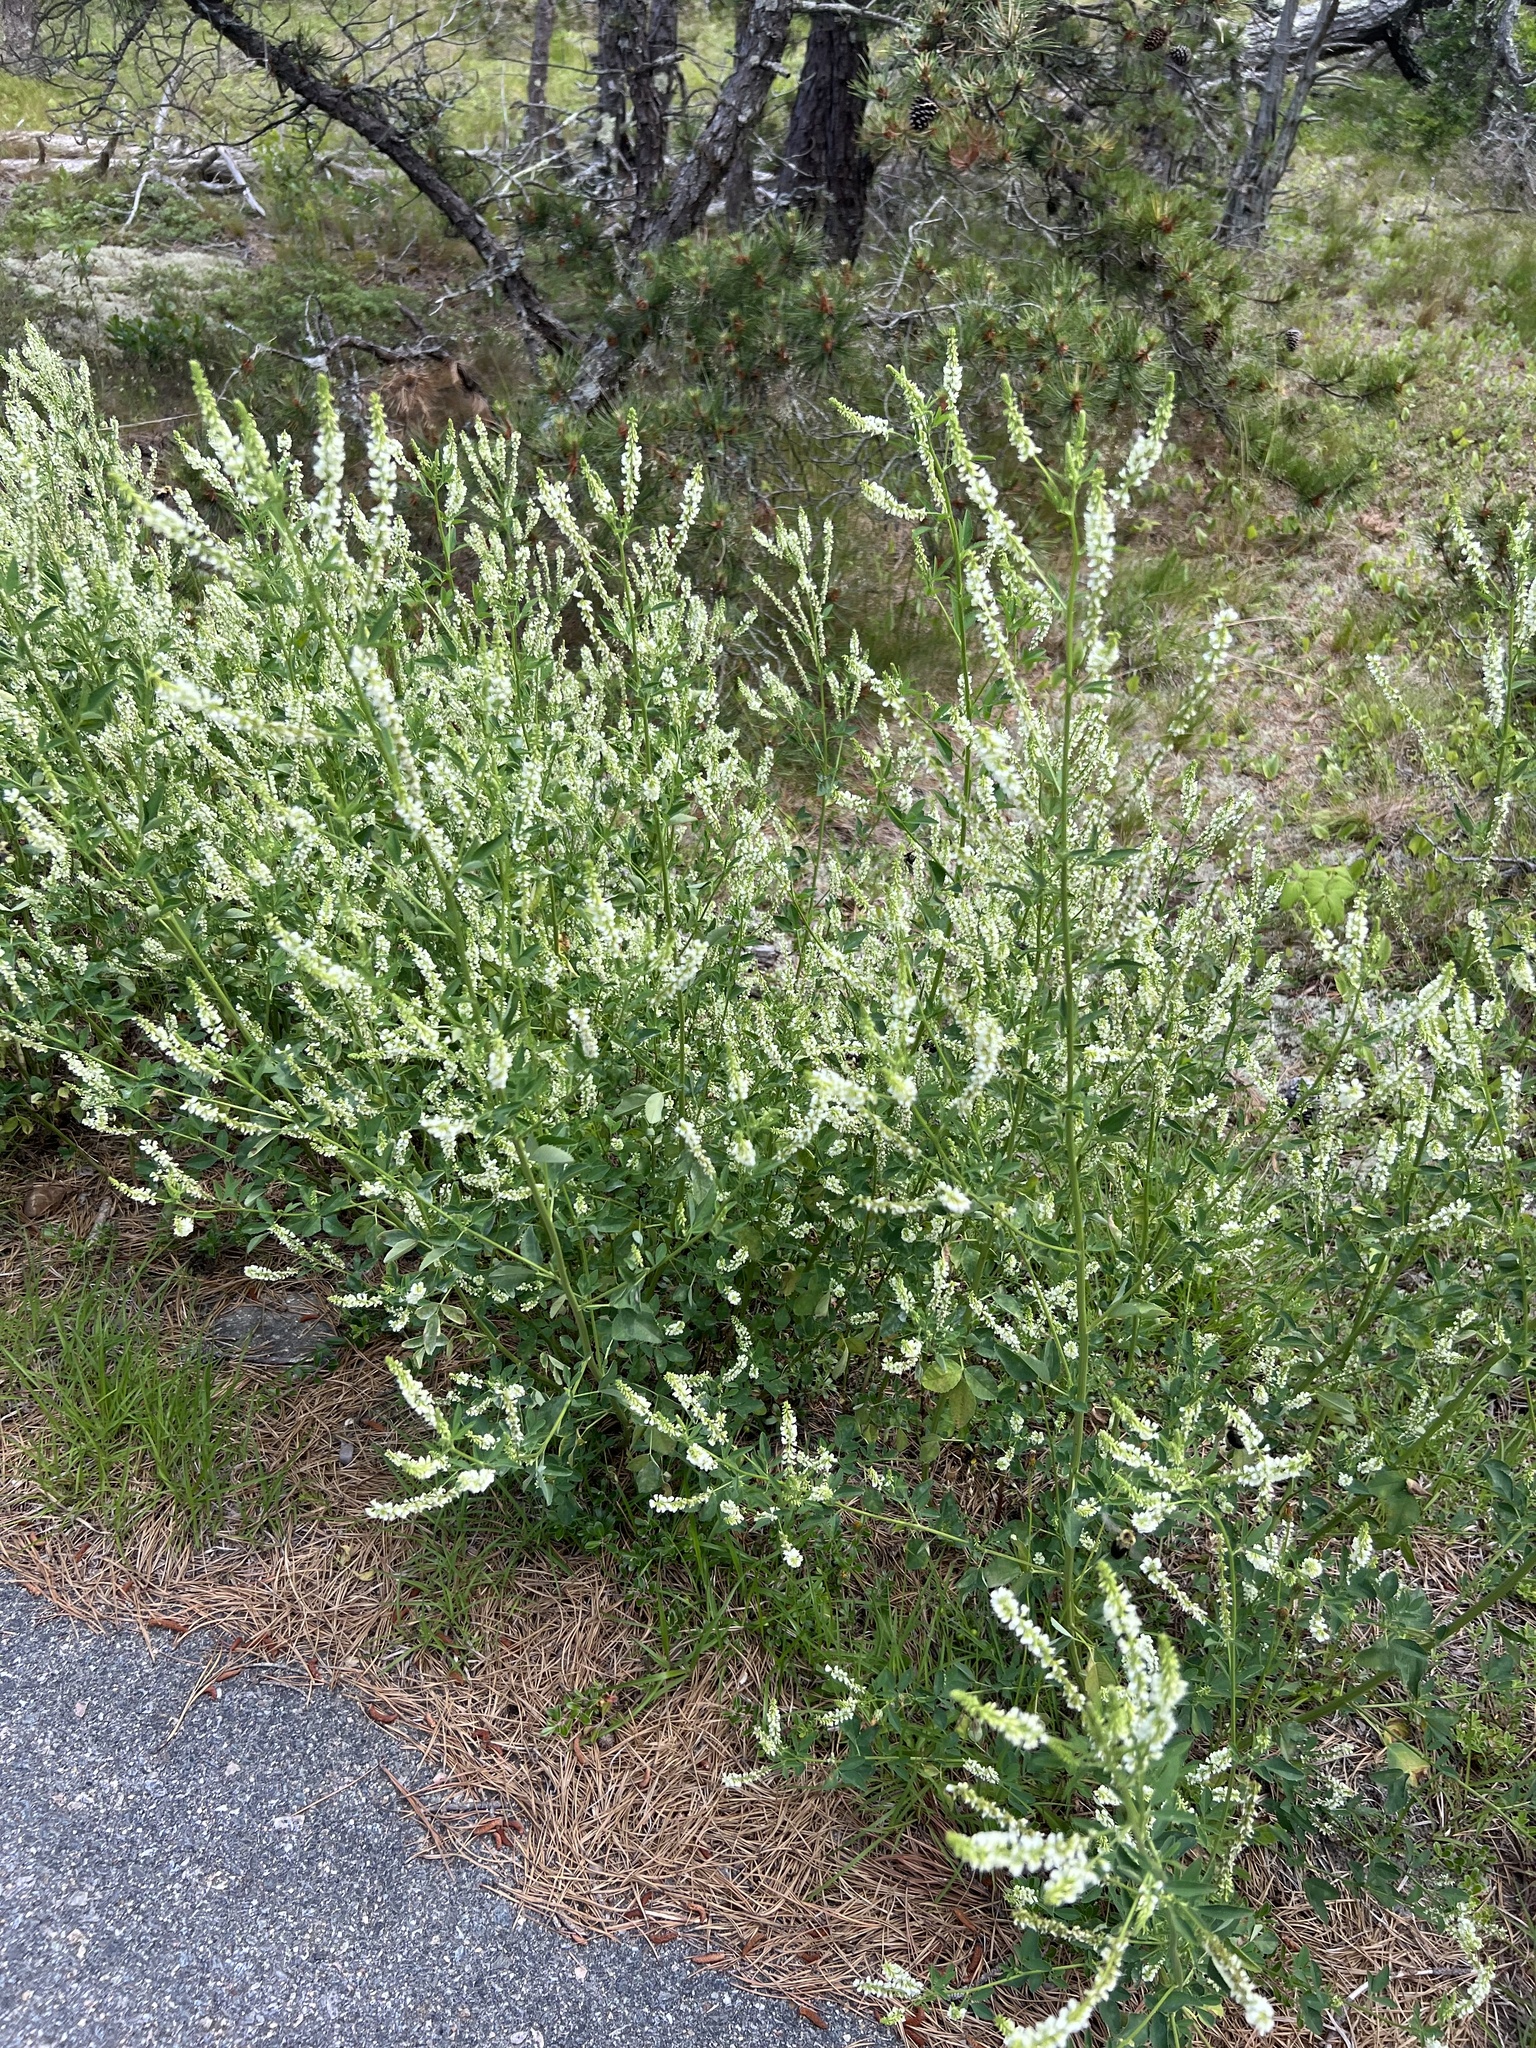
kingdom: Plantae
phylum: Tracheophyta
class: Magnoliopsida
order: Fabales
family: Fabaceae
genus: Melilotus
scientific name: Melilotus albus
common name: White melilot
